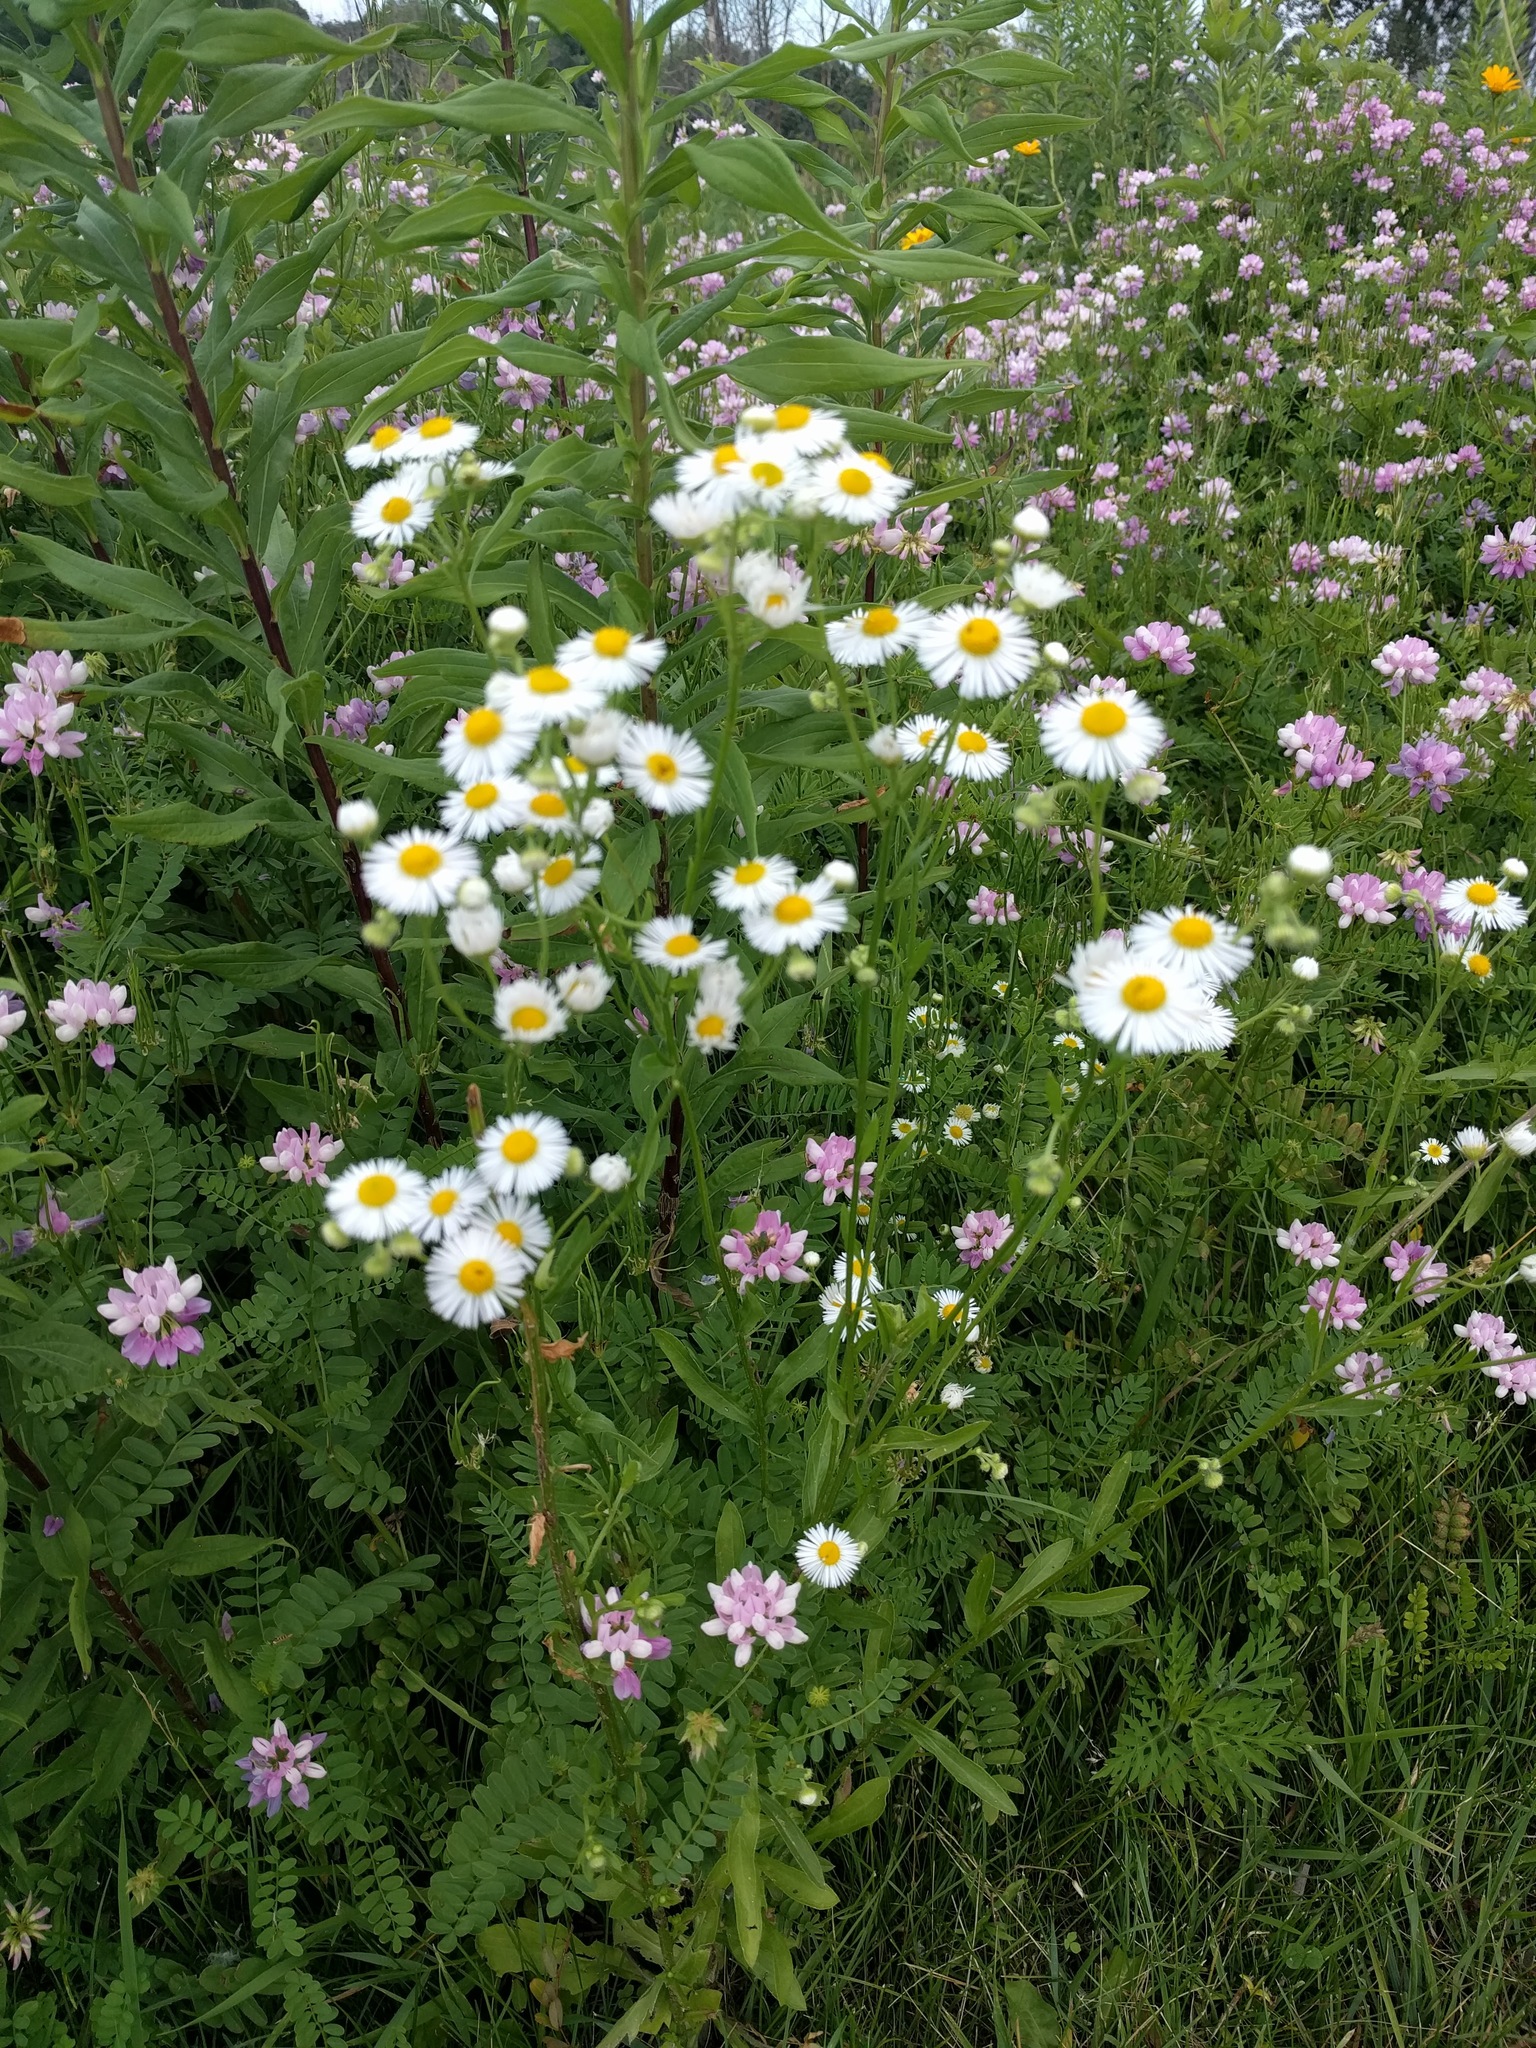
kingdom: Plantae
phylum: Tracheophyta
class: Magnoliopsida
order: Asterales
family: Asteraceae
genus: Erigeron
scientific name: Erigeron strigosus
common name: Common eastern fleabane
